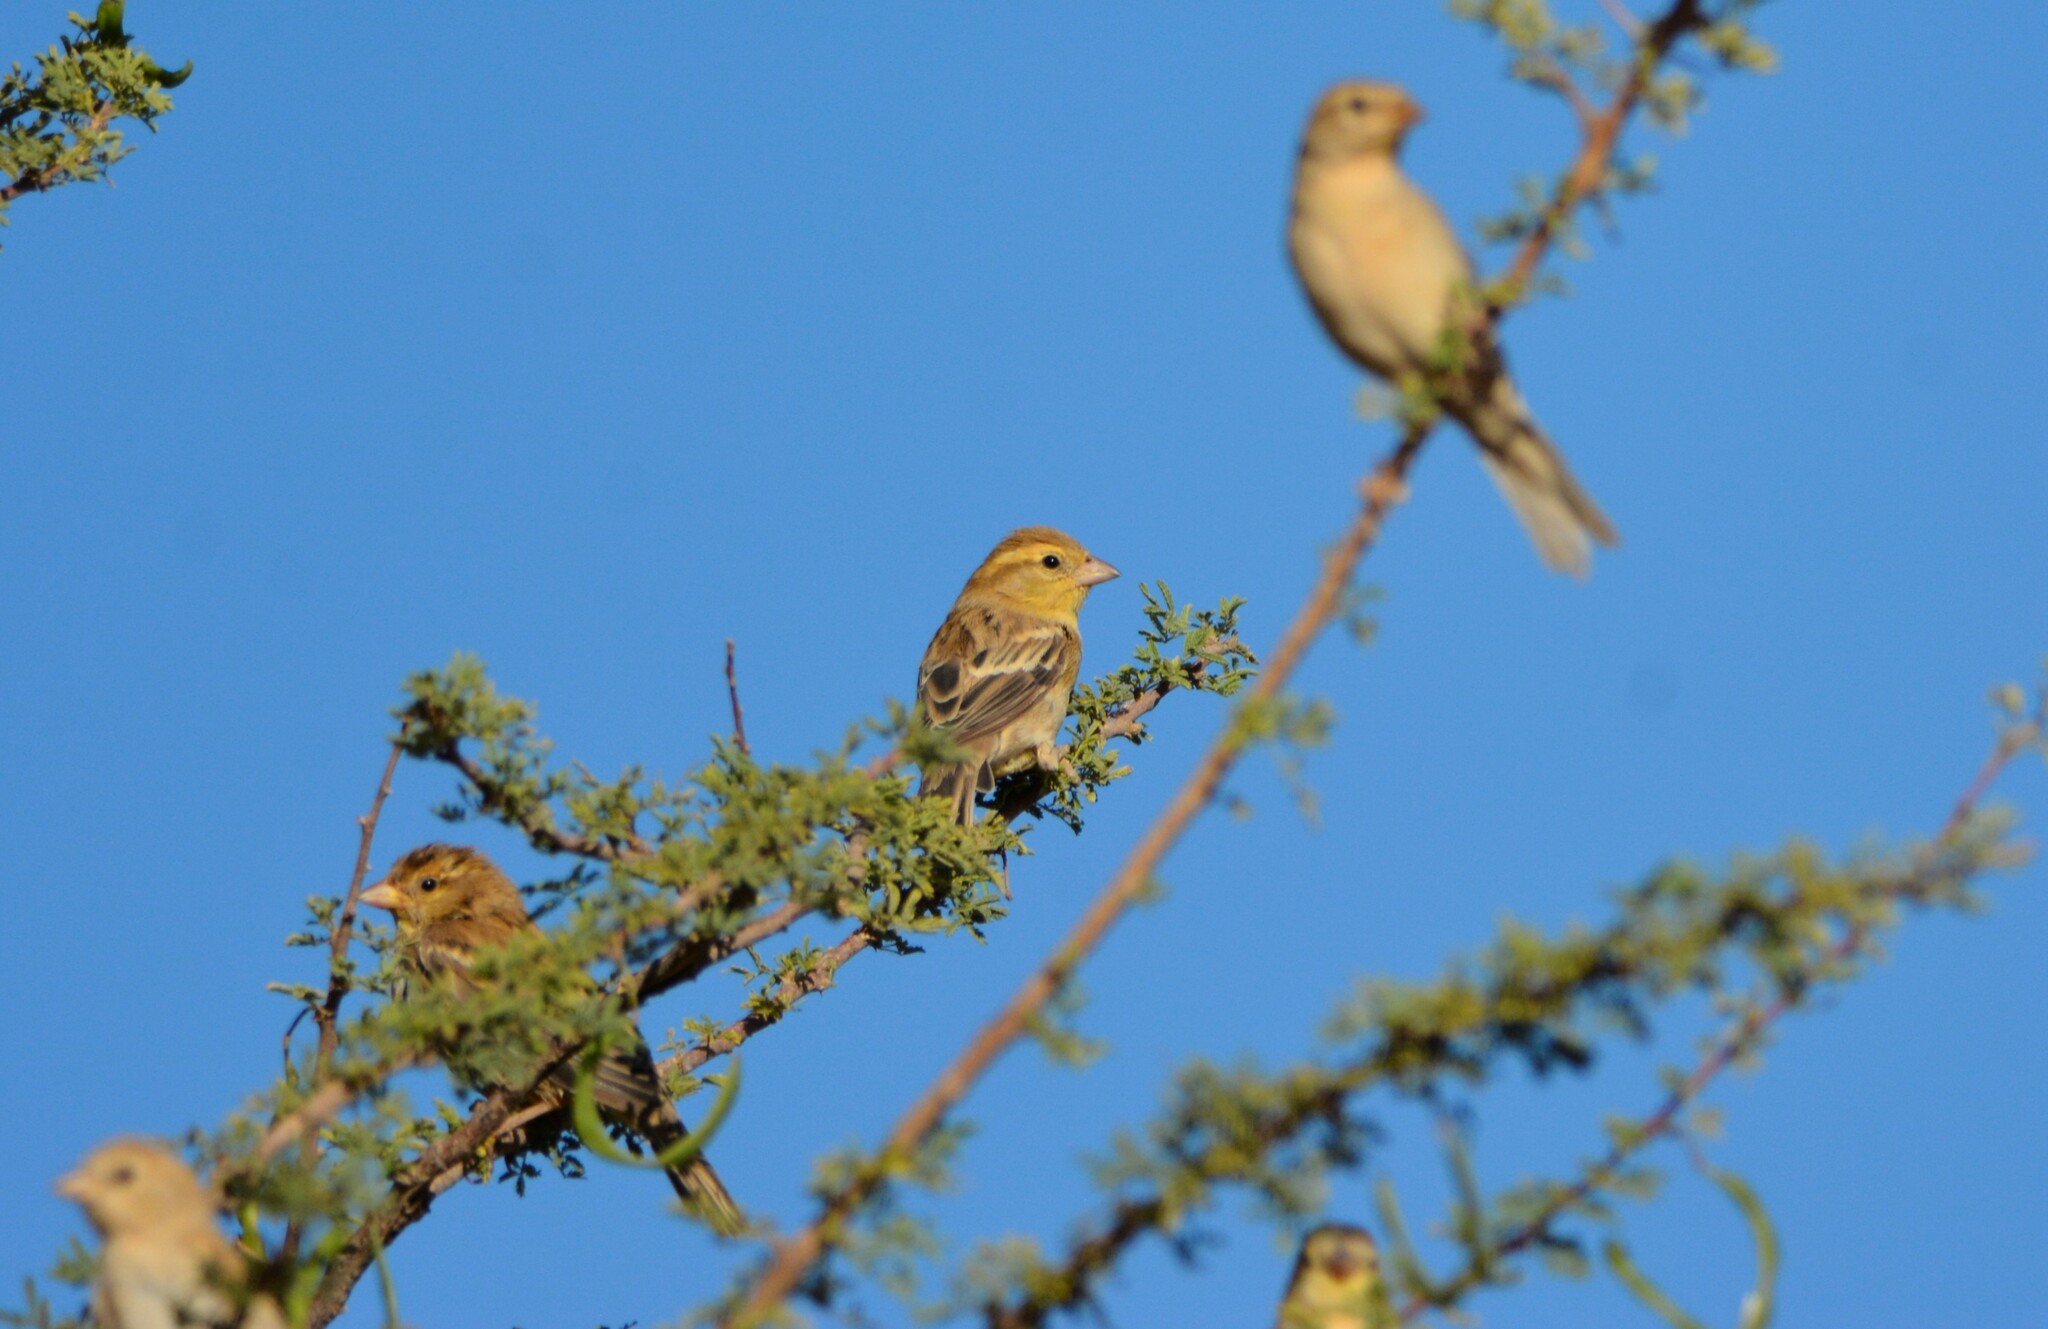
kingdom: Animalia
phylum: Chordata
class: Aves
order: Passeriformes
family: Passeridae
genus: Passer
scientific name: Passer luteus
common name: Sudan golden sparrow
